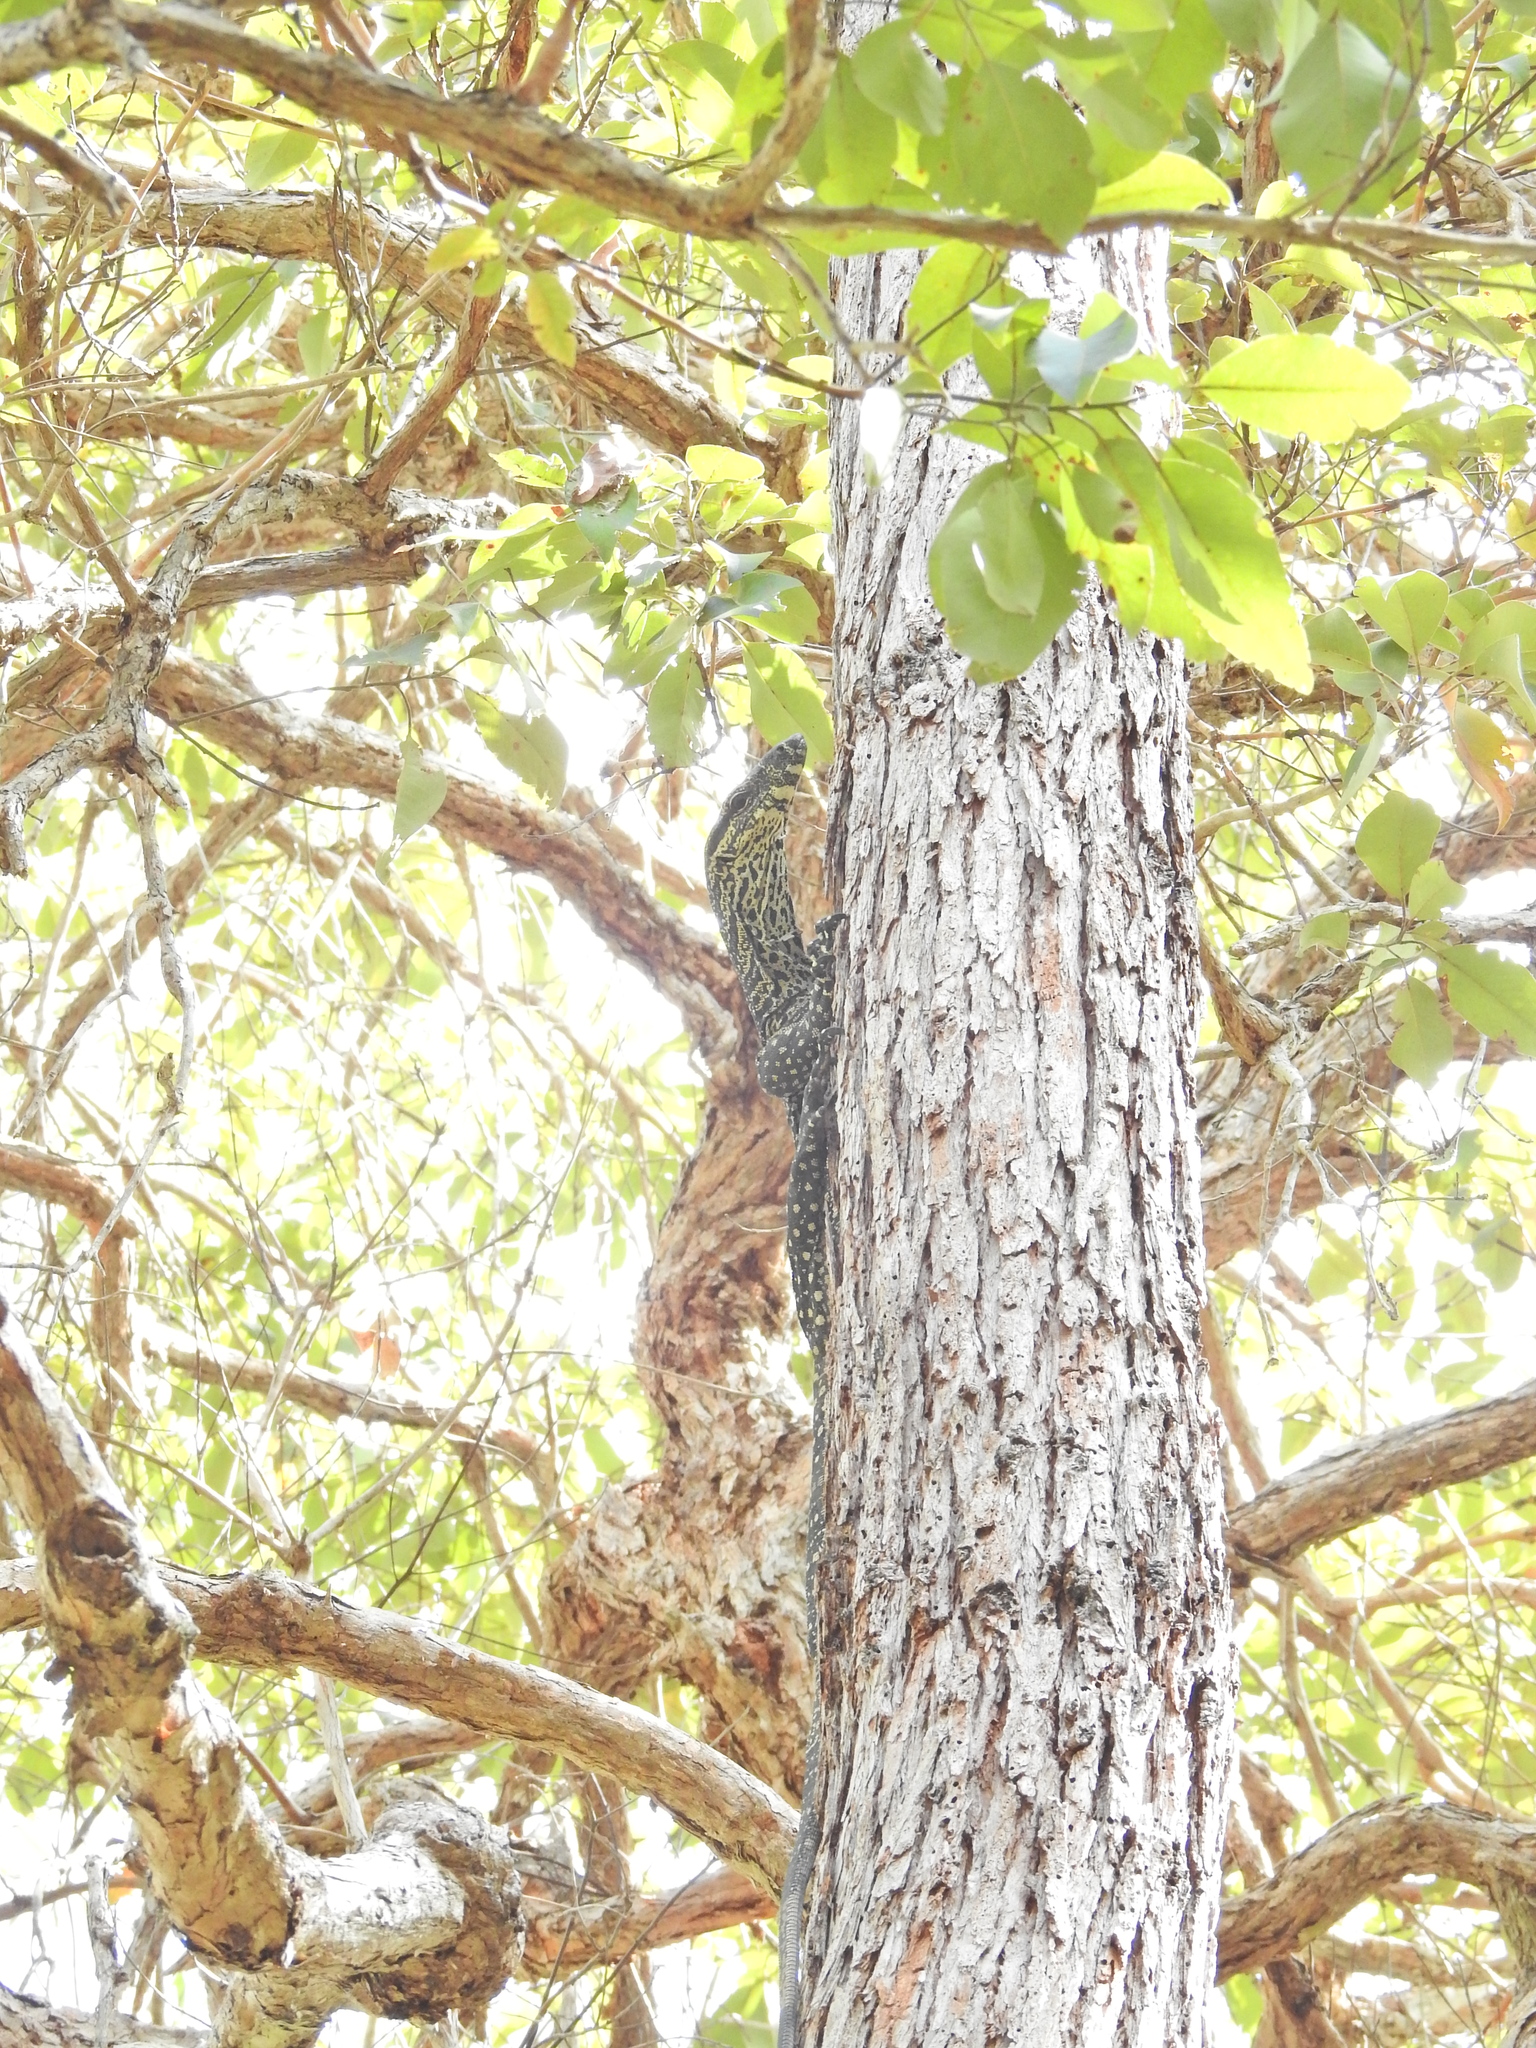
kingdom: Animalia
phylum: Chordata
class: Squamata
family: Varanidae
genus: Varanus
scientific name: Varanus varius
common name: Lace monitor
